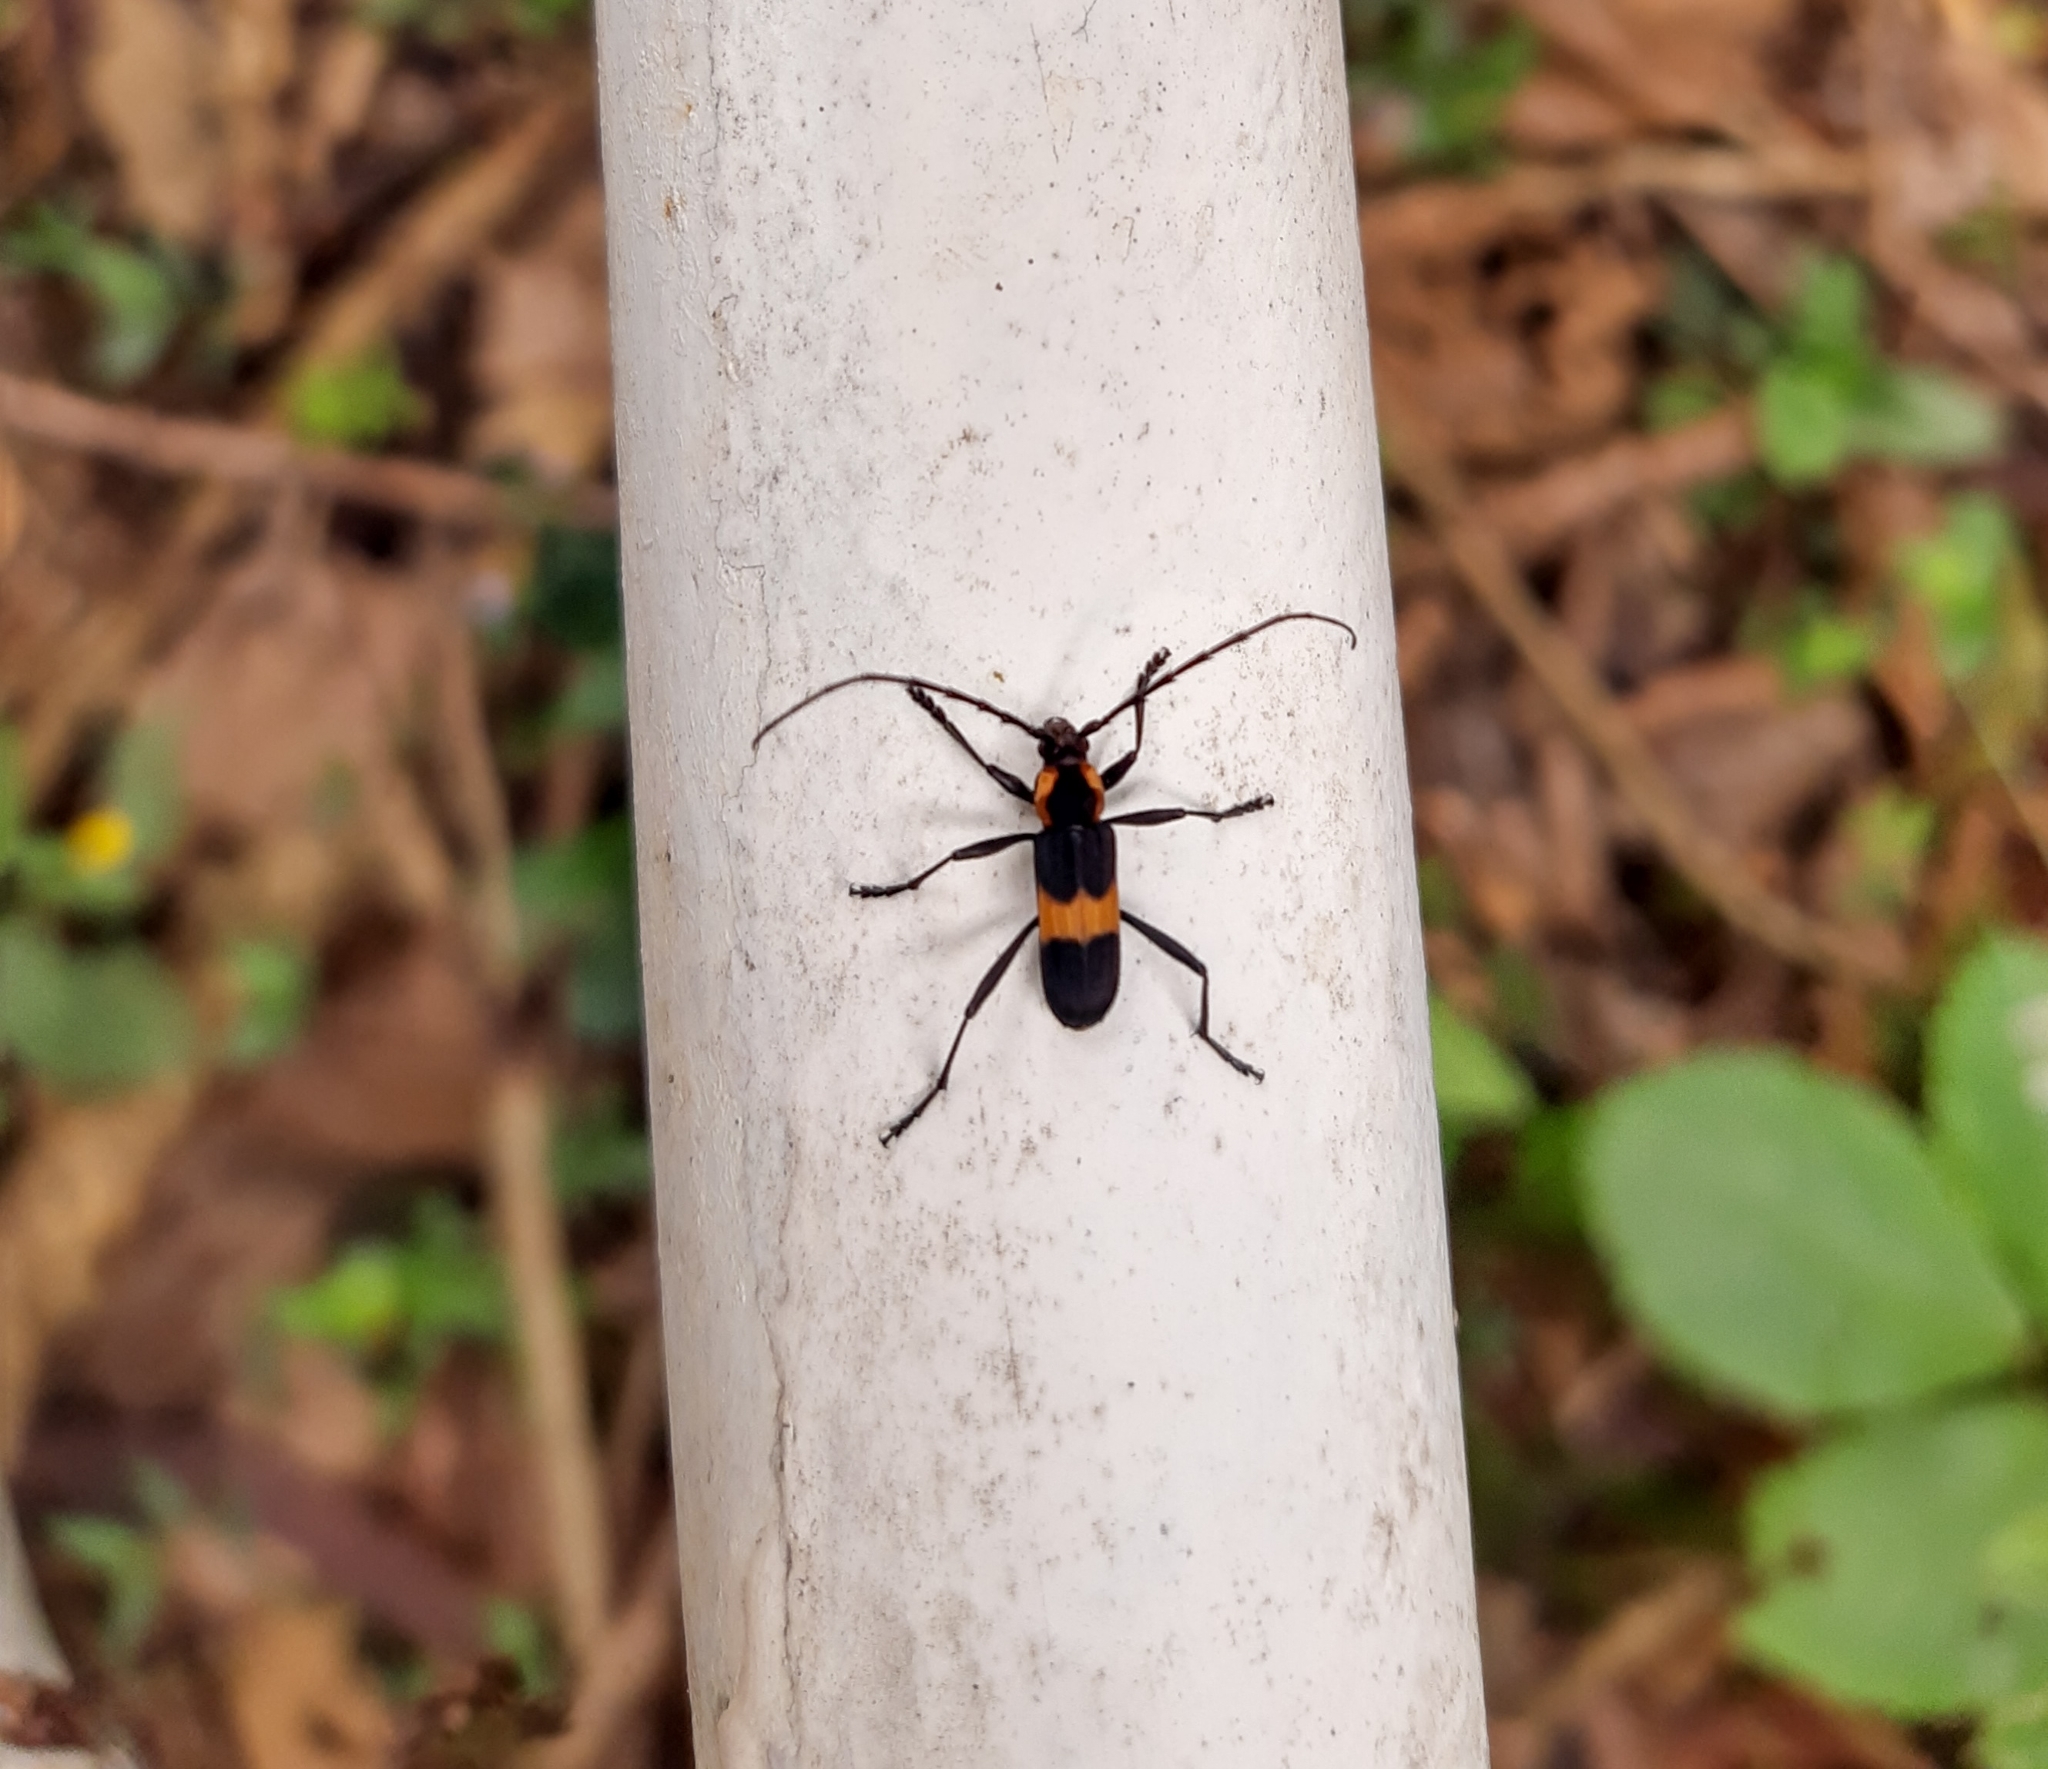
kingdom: Animalia
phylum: Arthropoda
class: Insecta
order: Coleoptera
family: Cerambycidae
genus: Mallosoma
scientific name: Mallosoma zonatum
